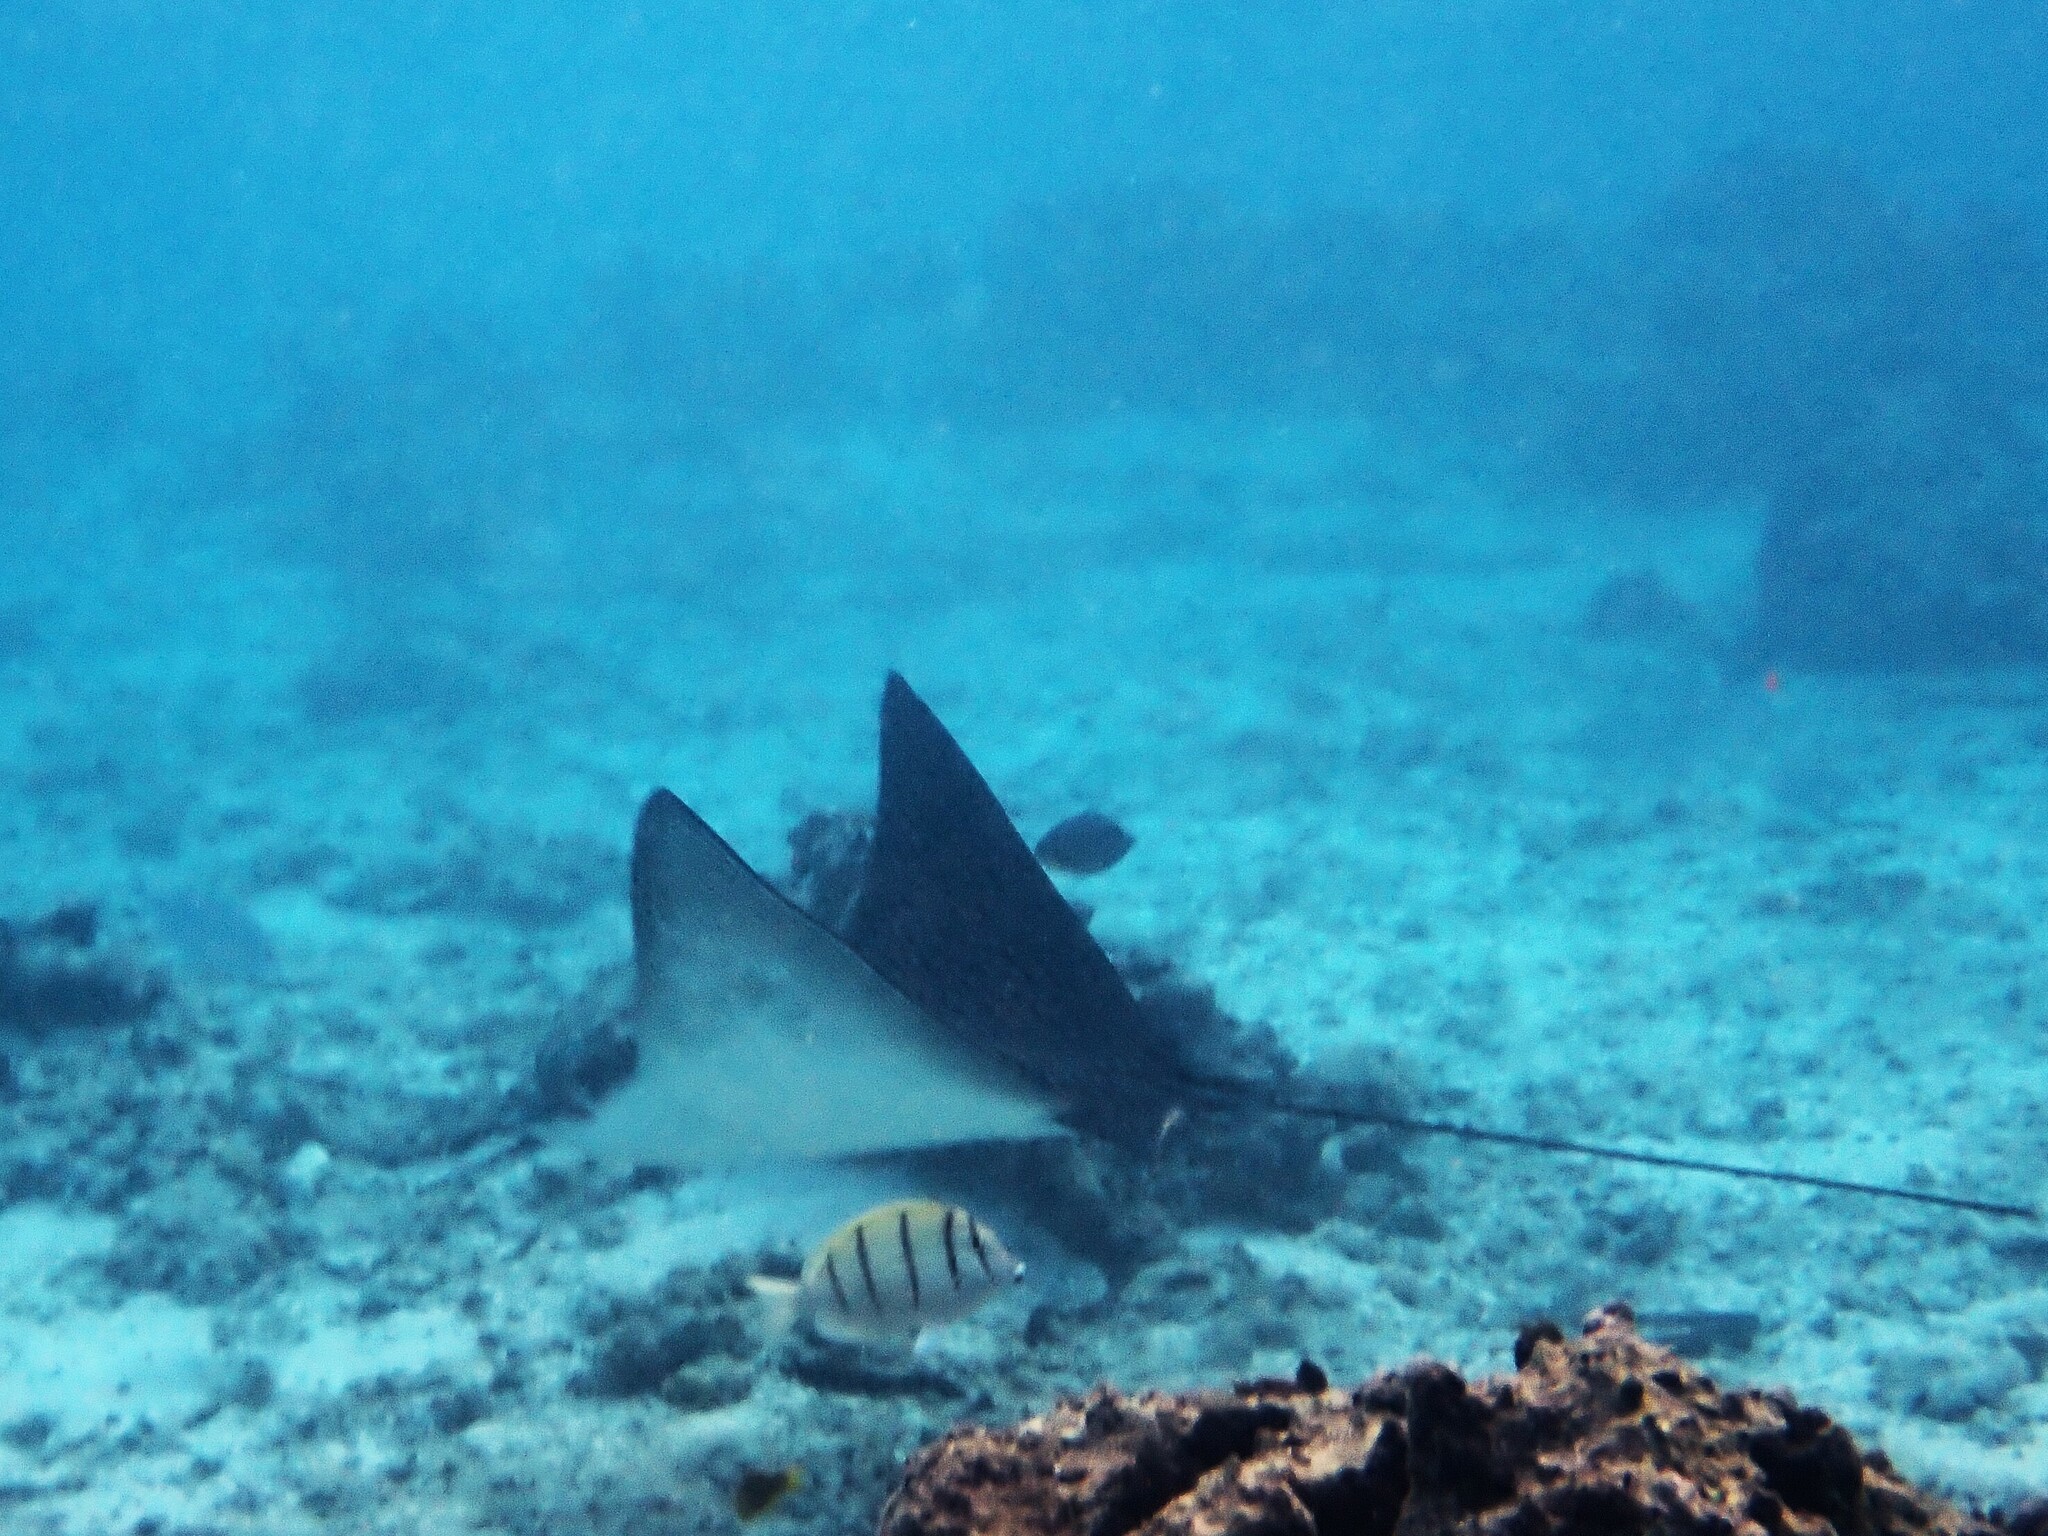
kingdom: Animalia
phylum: Chordata
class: Elasmobranchii
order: Myliobatiformes
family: Myliobatidae
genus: Aetobatus
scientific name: Aetobatus ocellatus
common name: Ocellated eagle ray
